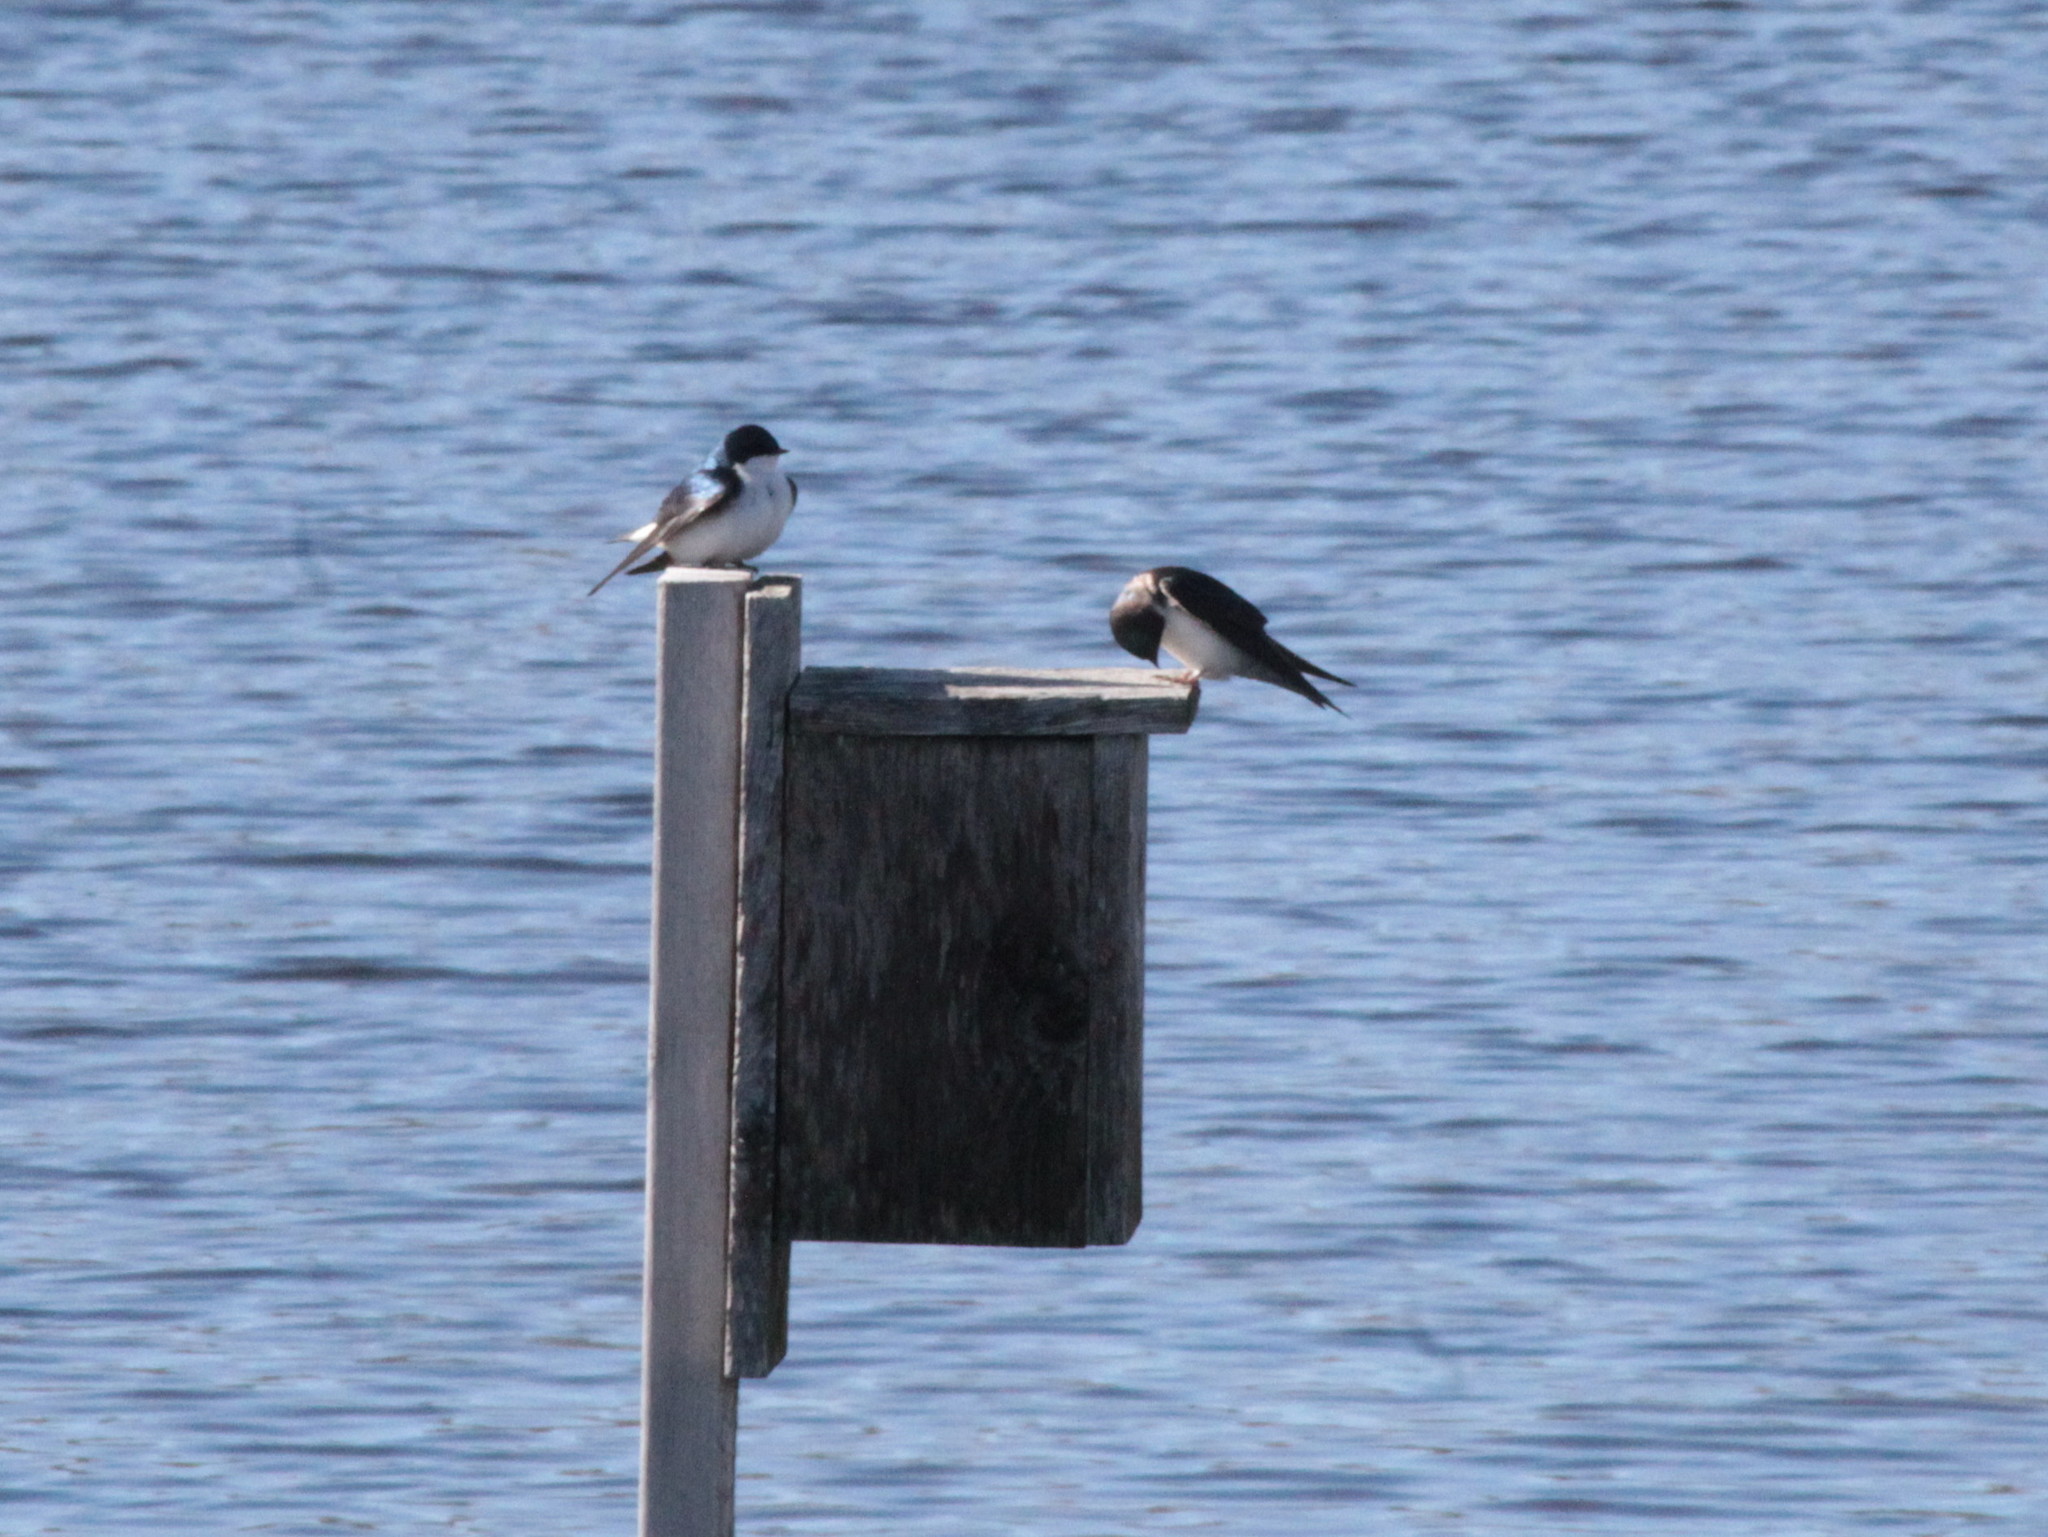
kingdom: Animalia
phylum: Chordata
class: Aves
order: Passeriformes
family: Hirundinidae
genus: Tachycineta
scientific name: Tachycineta bicolor
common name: Tree swallow
